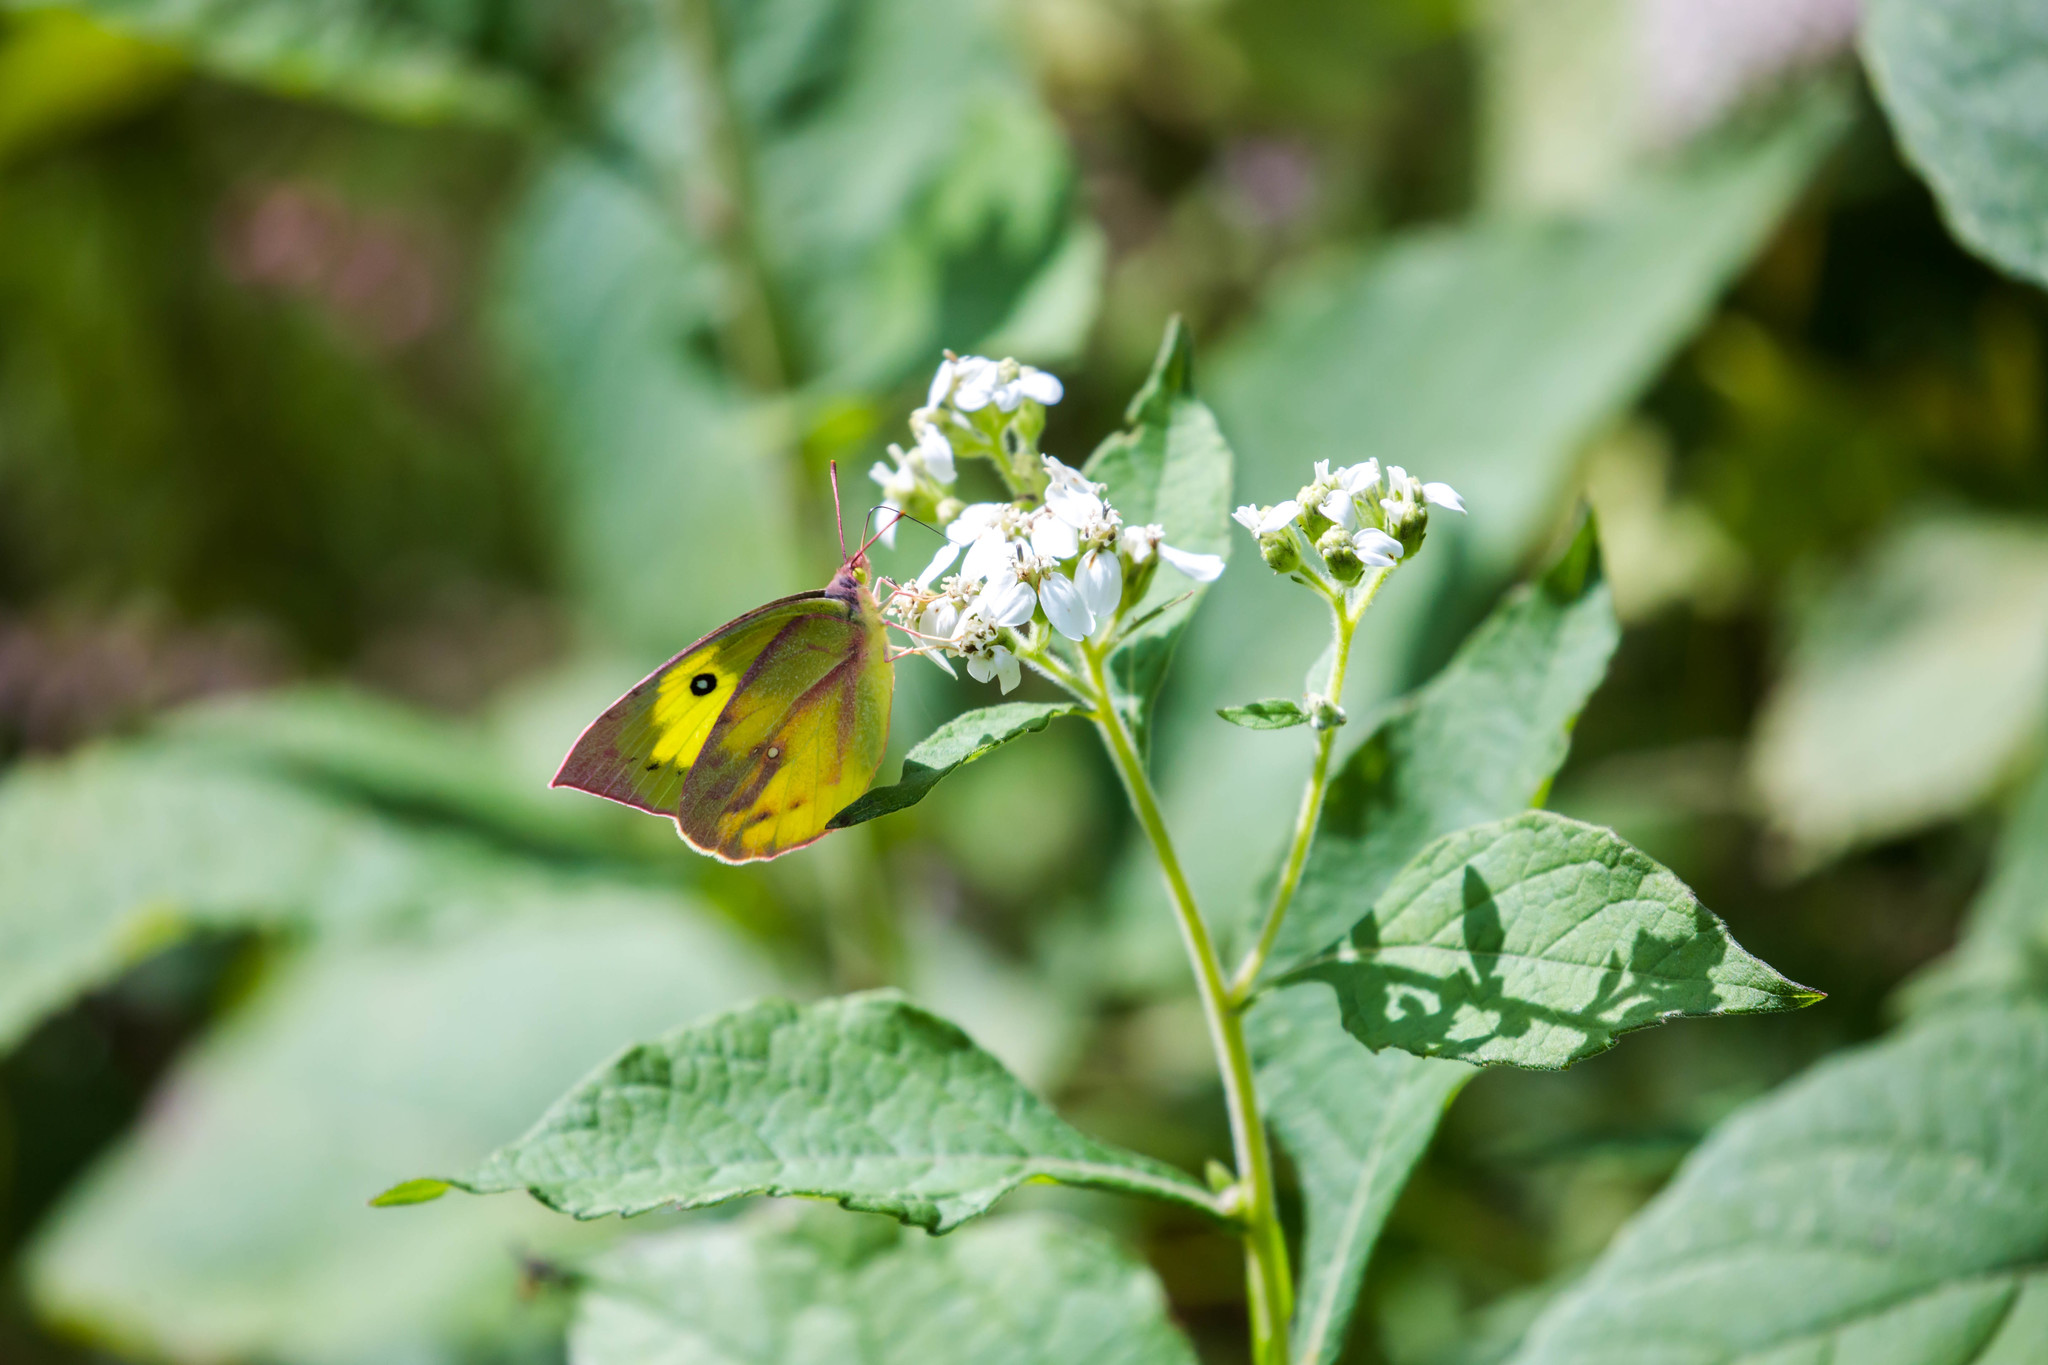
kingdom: Animalia
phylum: Arthropoda
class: Insecta
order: Lepidoptera
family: Pieridae
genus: Zerene
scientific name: Zerene cesonia
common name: Southern dogface
